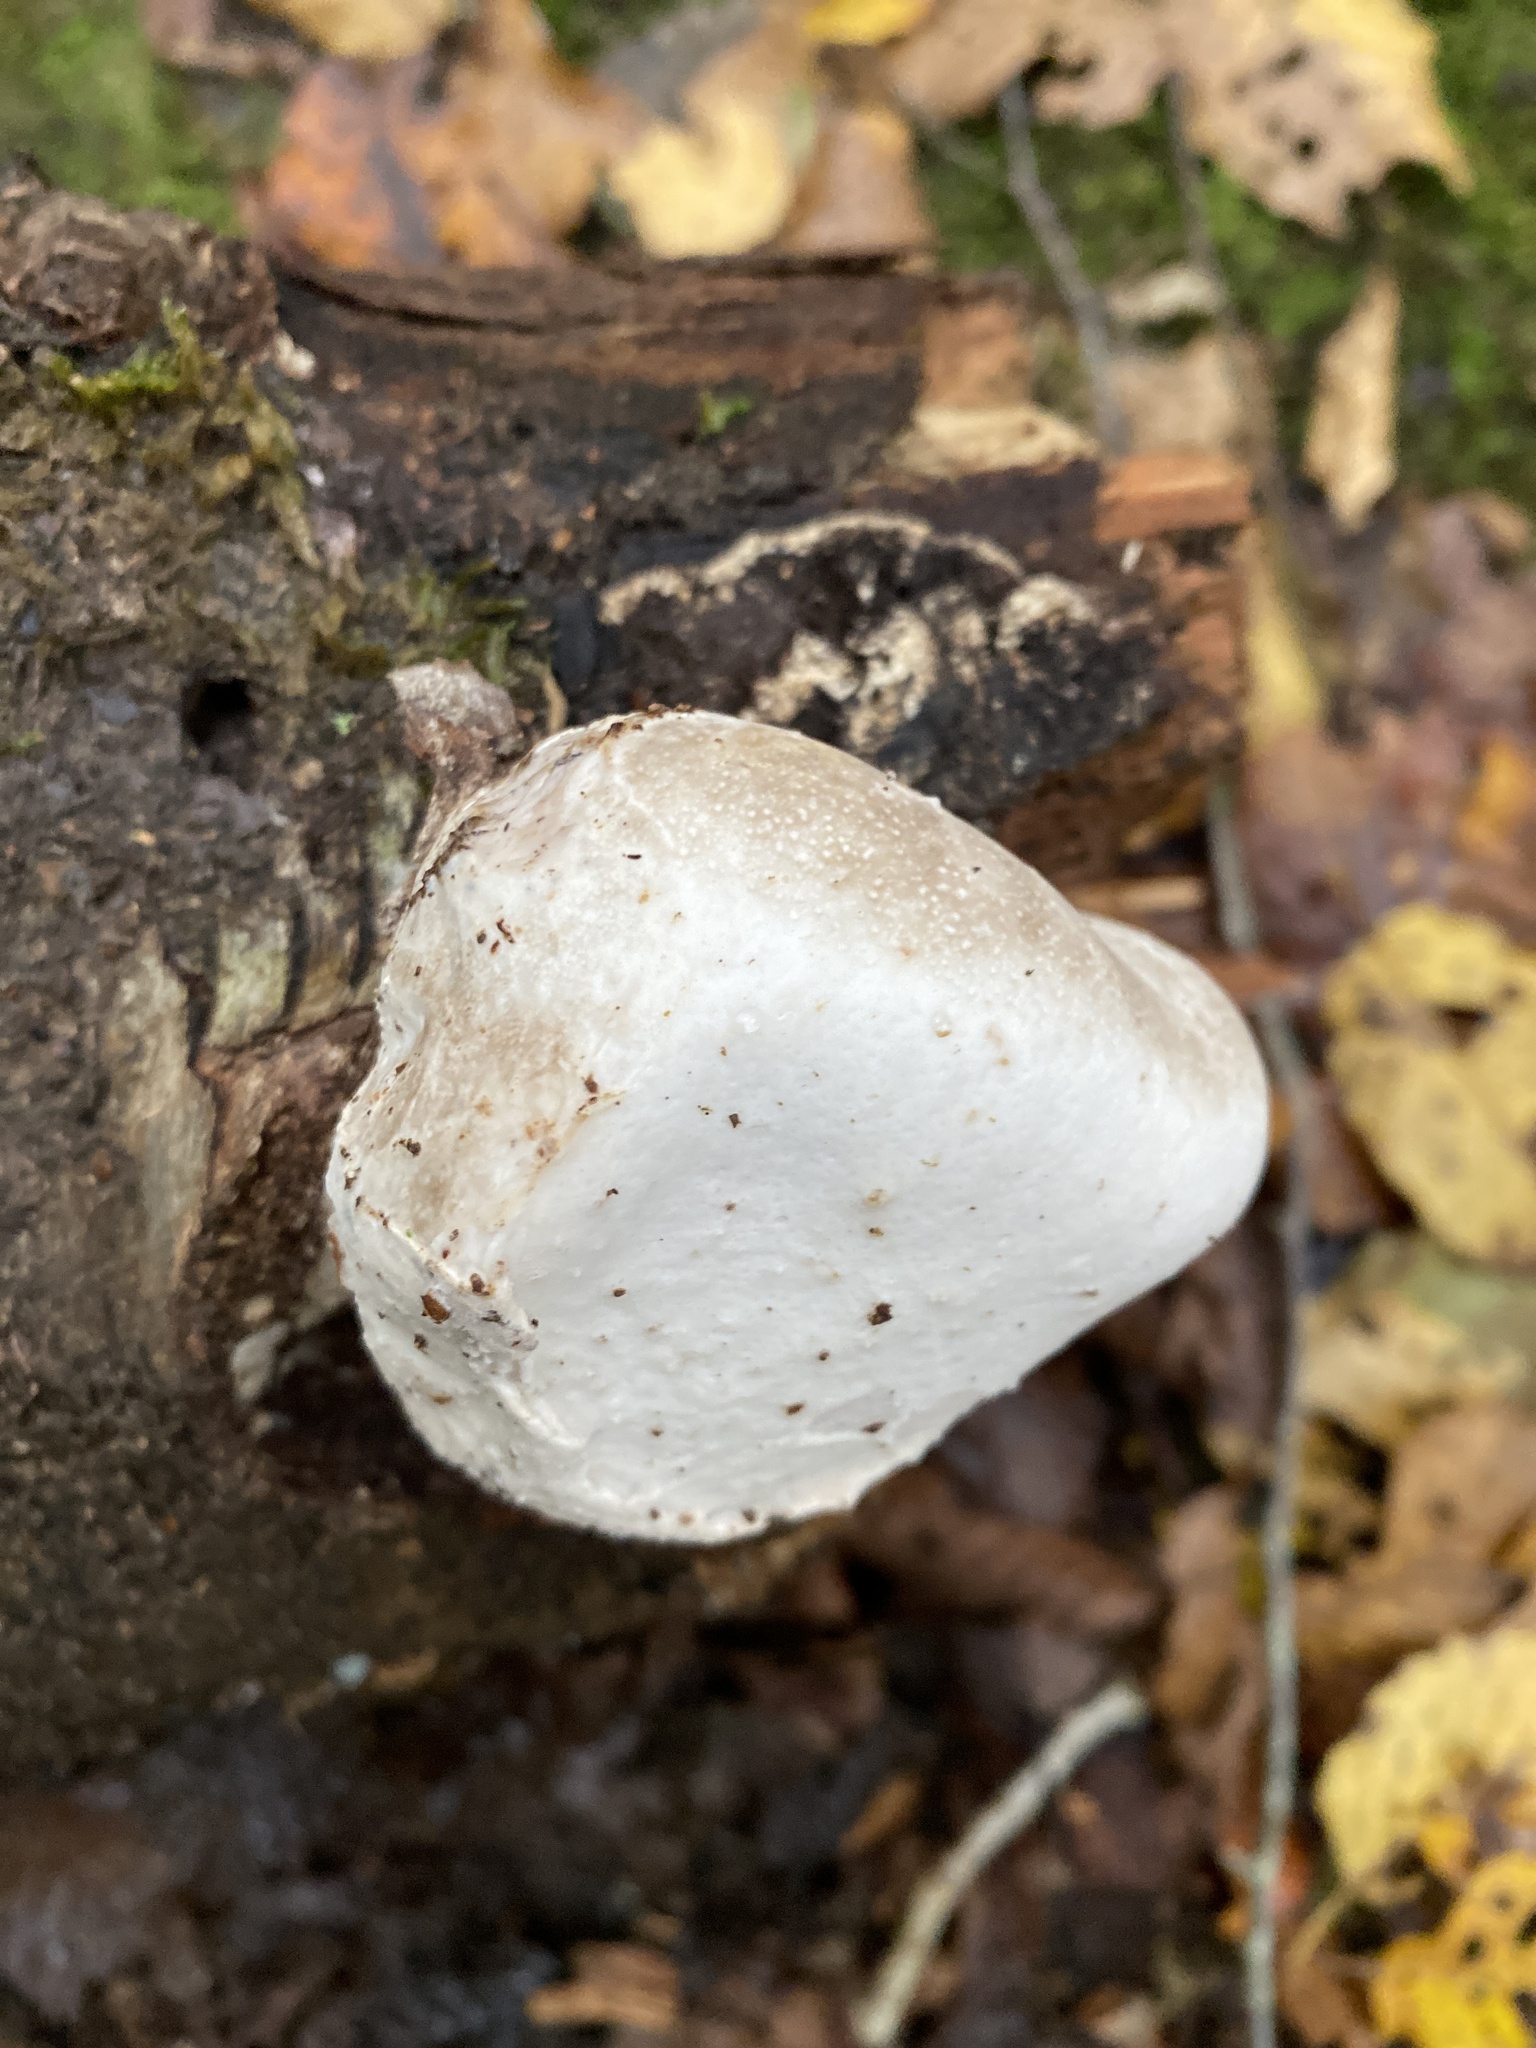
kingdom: Fungi
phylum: Basidiomycota
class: Agaricomycetes
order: Polyporales
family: Fomitopsidaceae
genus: Fomitopsis
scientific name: Fomitopsis betulina
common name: Birch polypore
